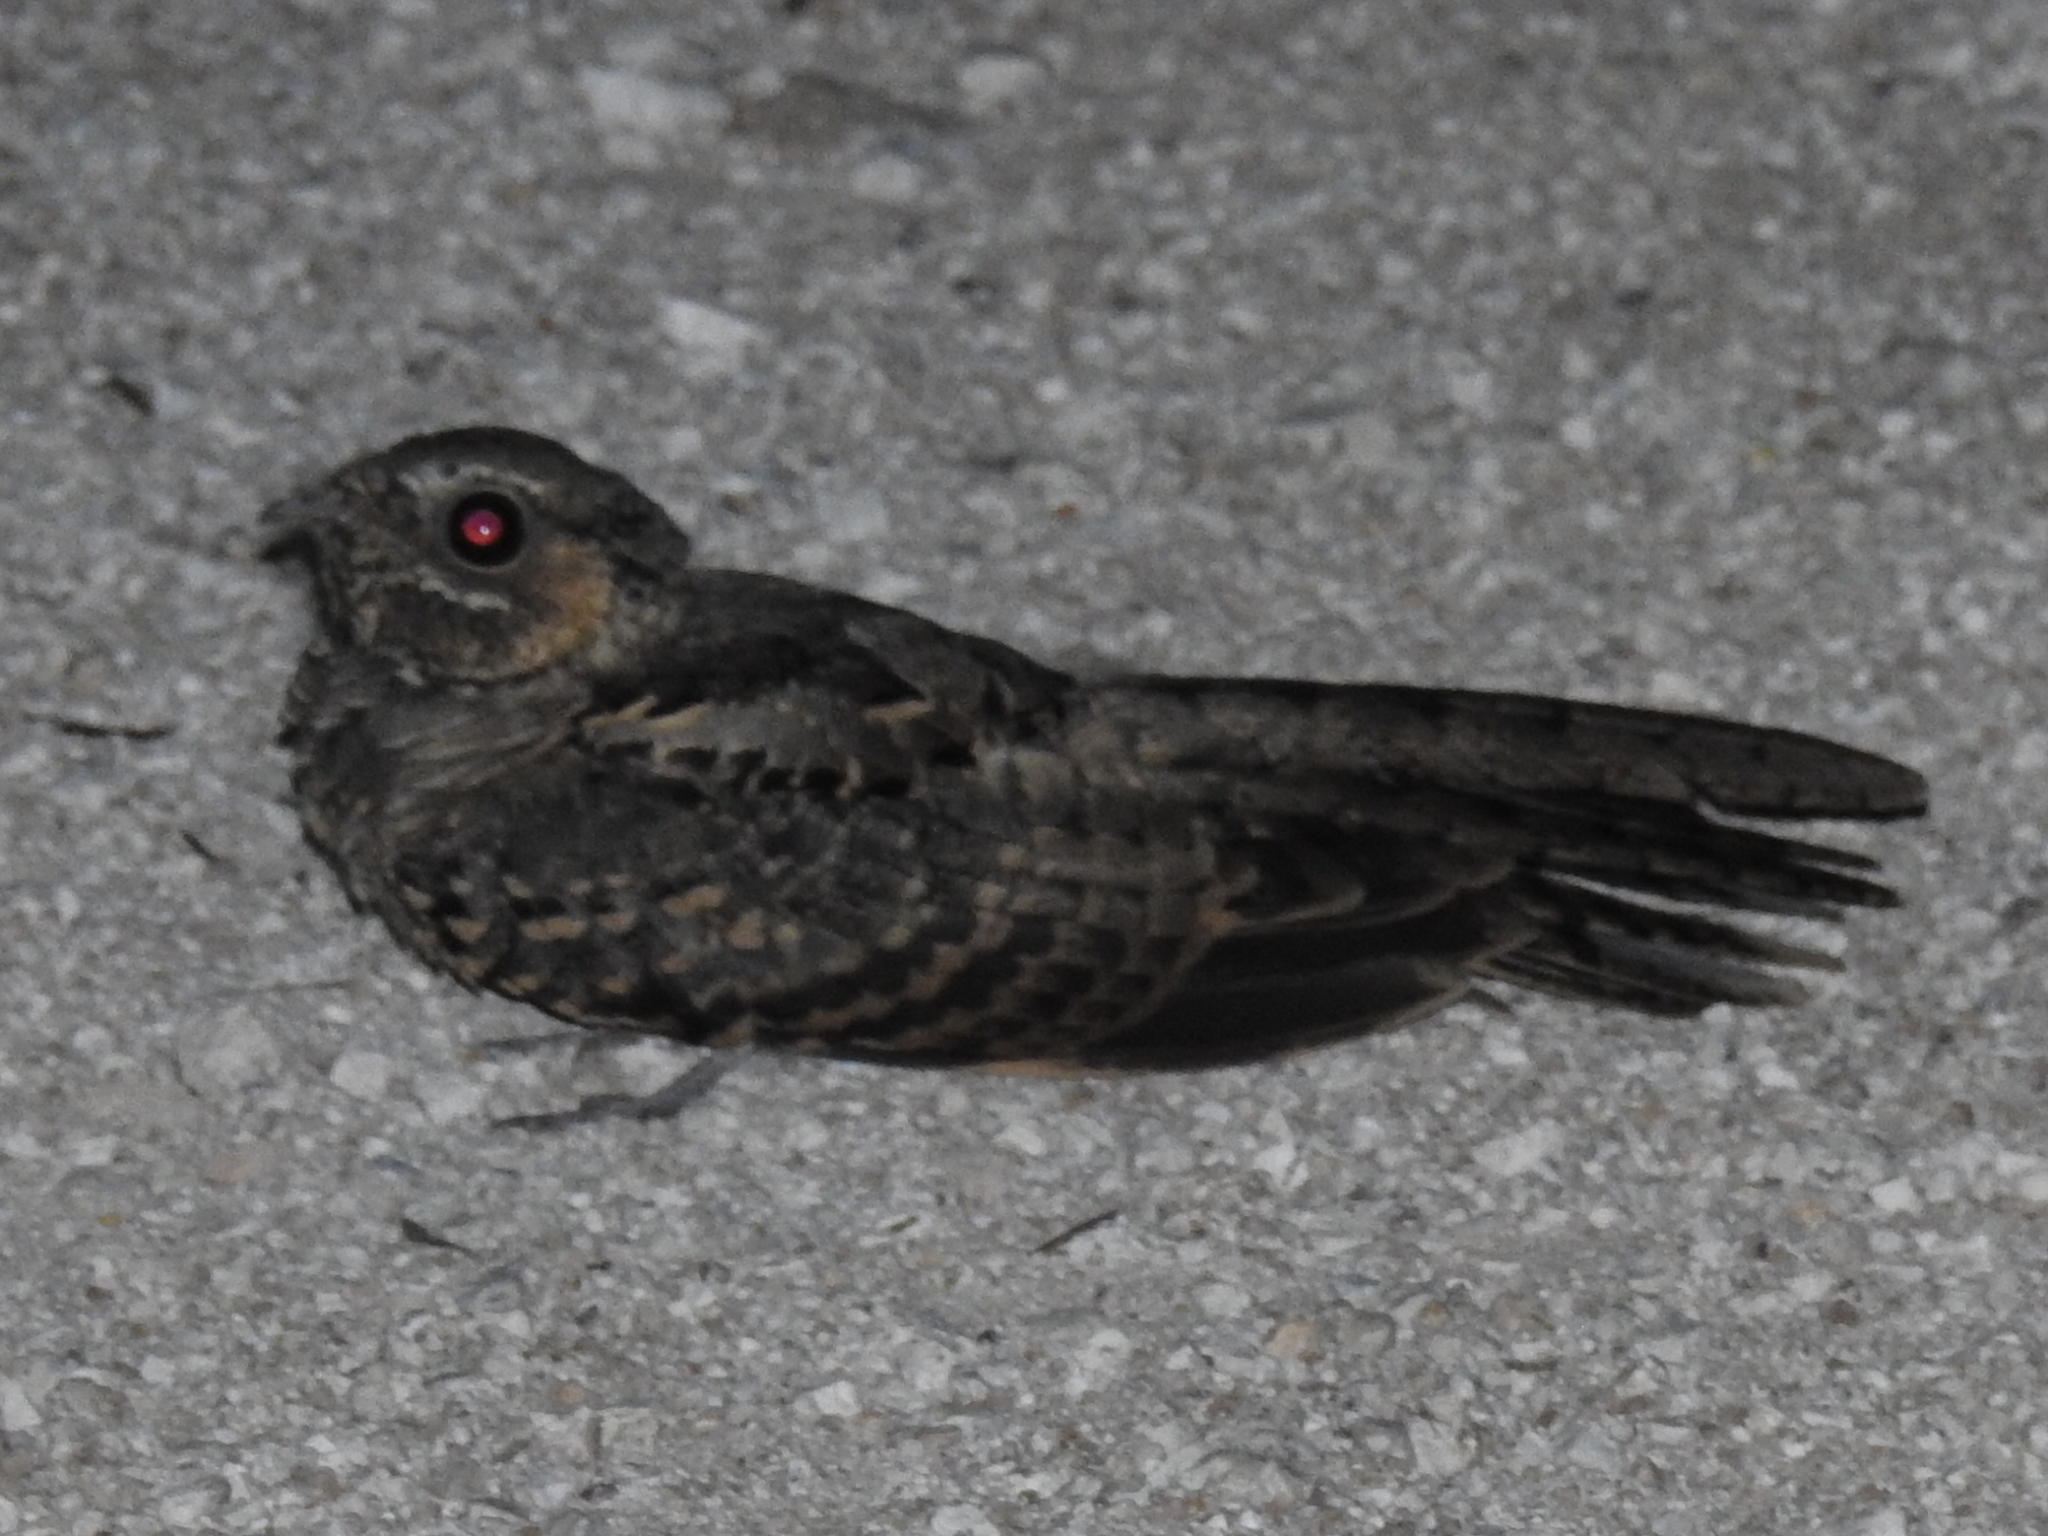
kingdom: Animalia
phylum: Chordata
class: Aves
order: Caprimulgiformes
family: Caprimulgidae
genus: Nyctidromus
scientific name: Nyctidromus albicollis
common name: Pauraque
